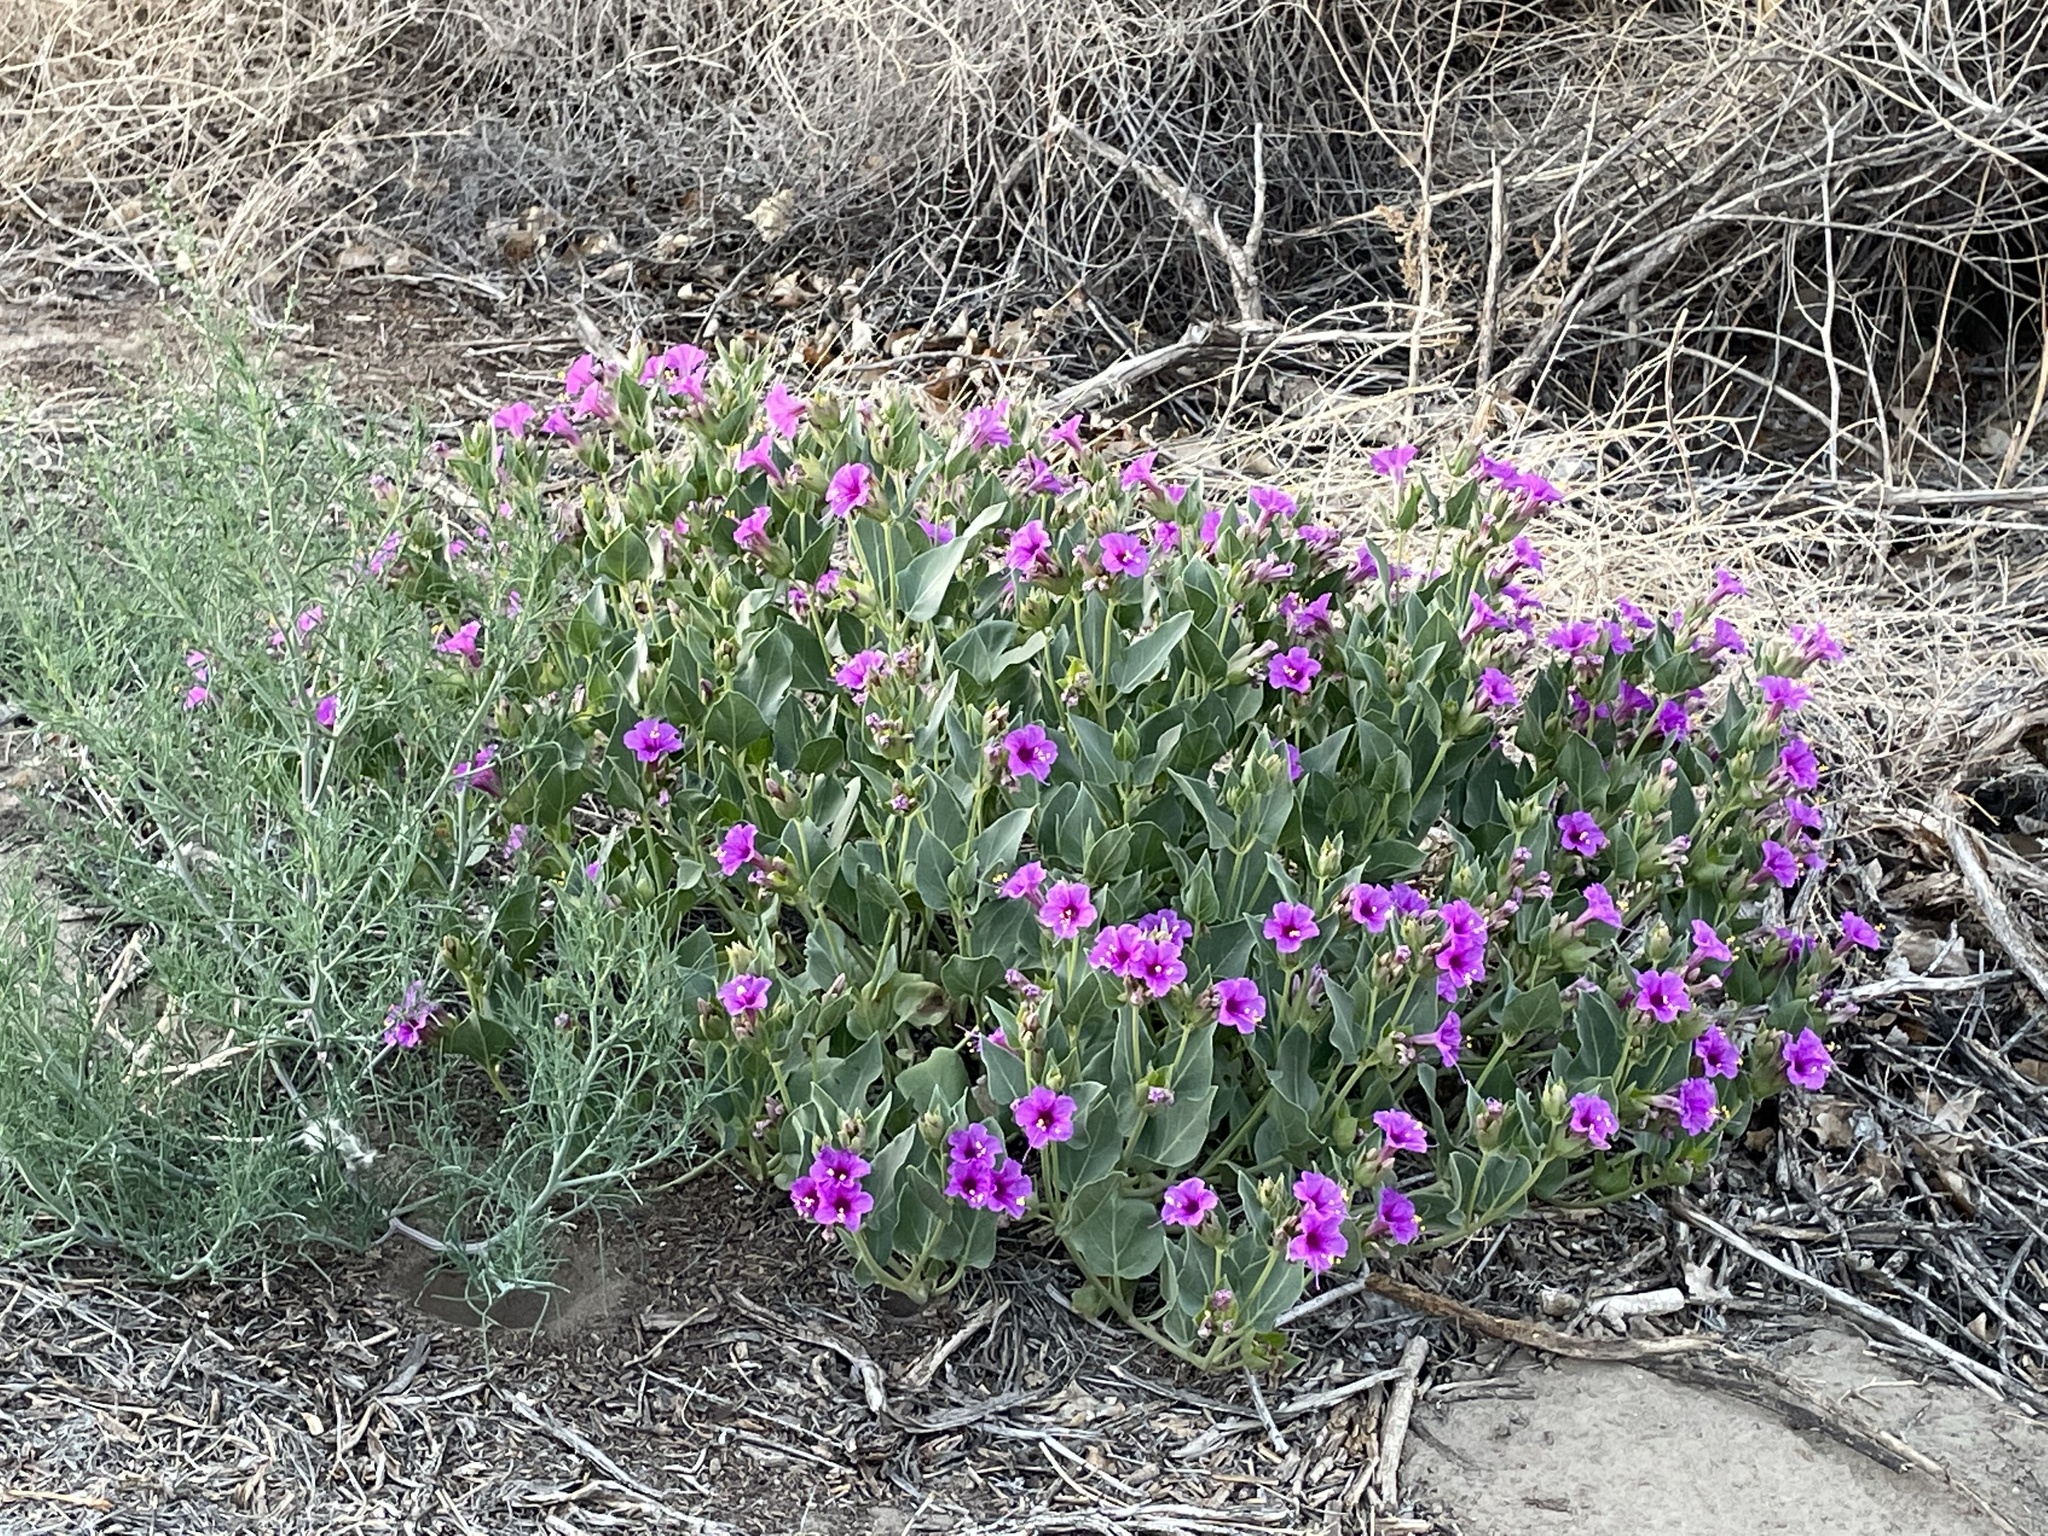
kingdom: Plantae
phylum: Tracheophyta
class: Magnoliopsida
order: Caryophyllales
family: Nyctaginaceae
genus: Mirabilis
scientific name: Mirabilis multiflora
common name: Froebel's four-o'clock
